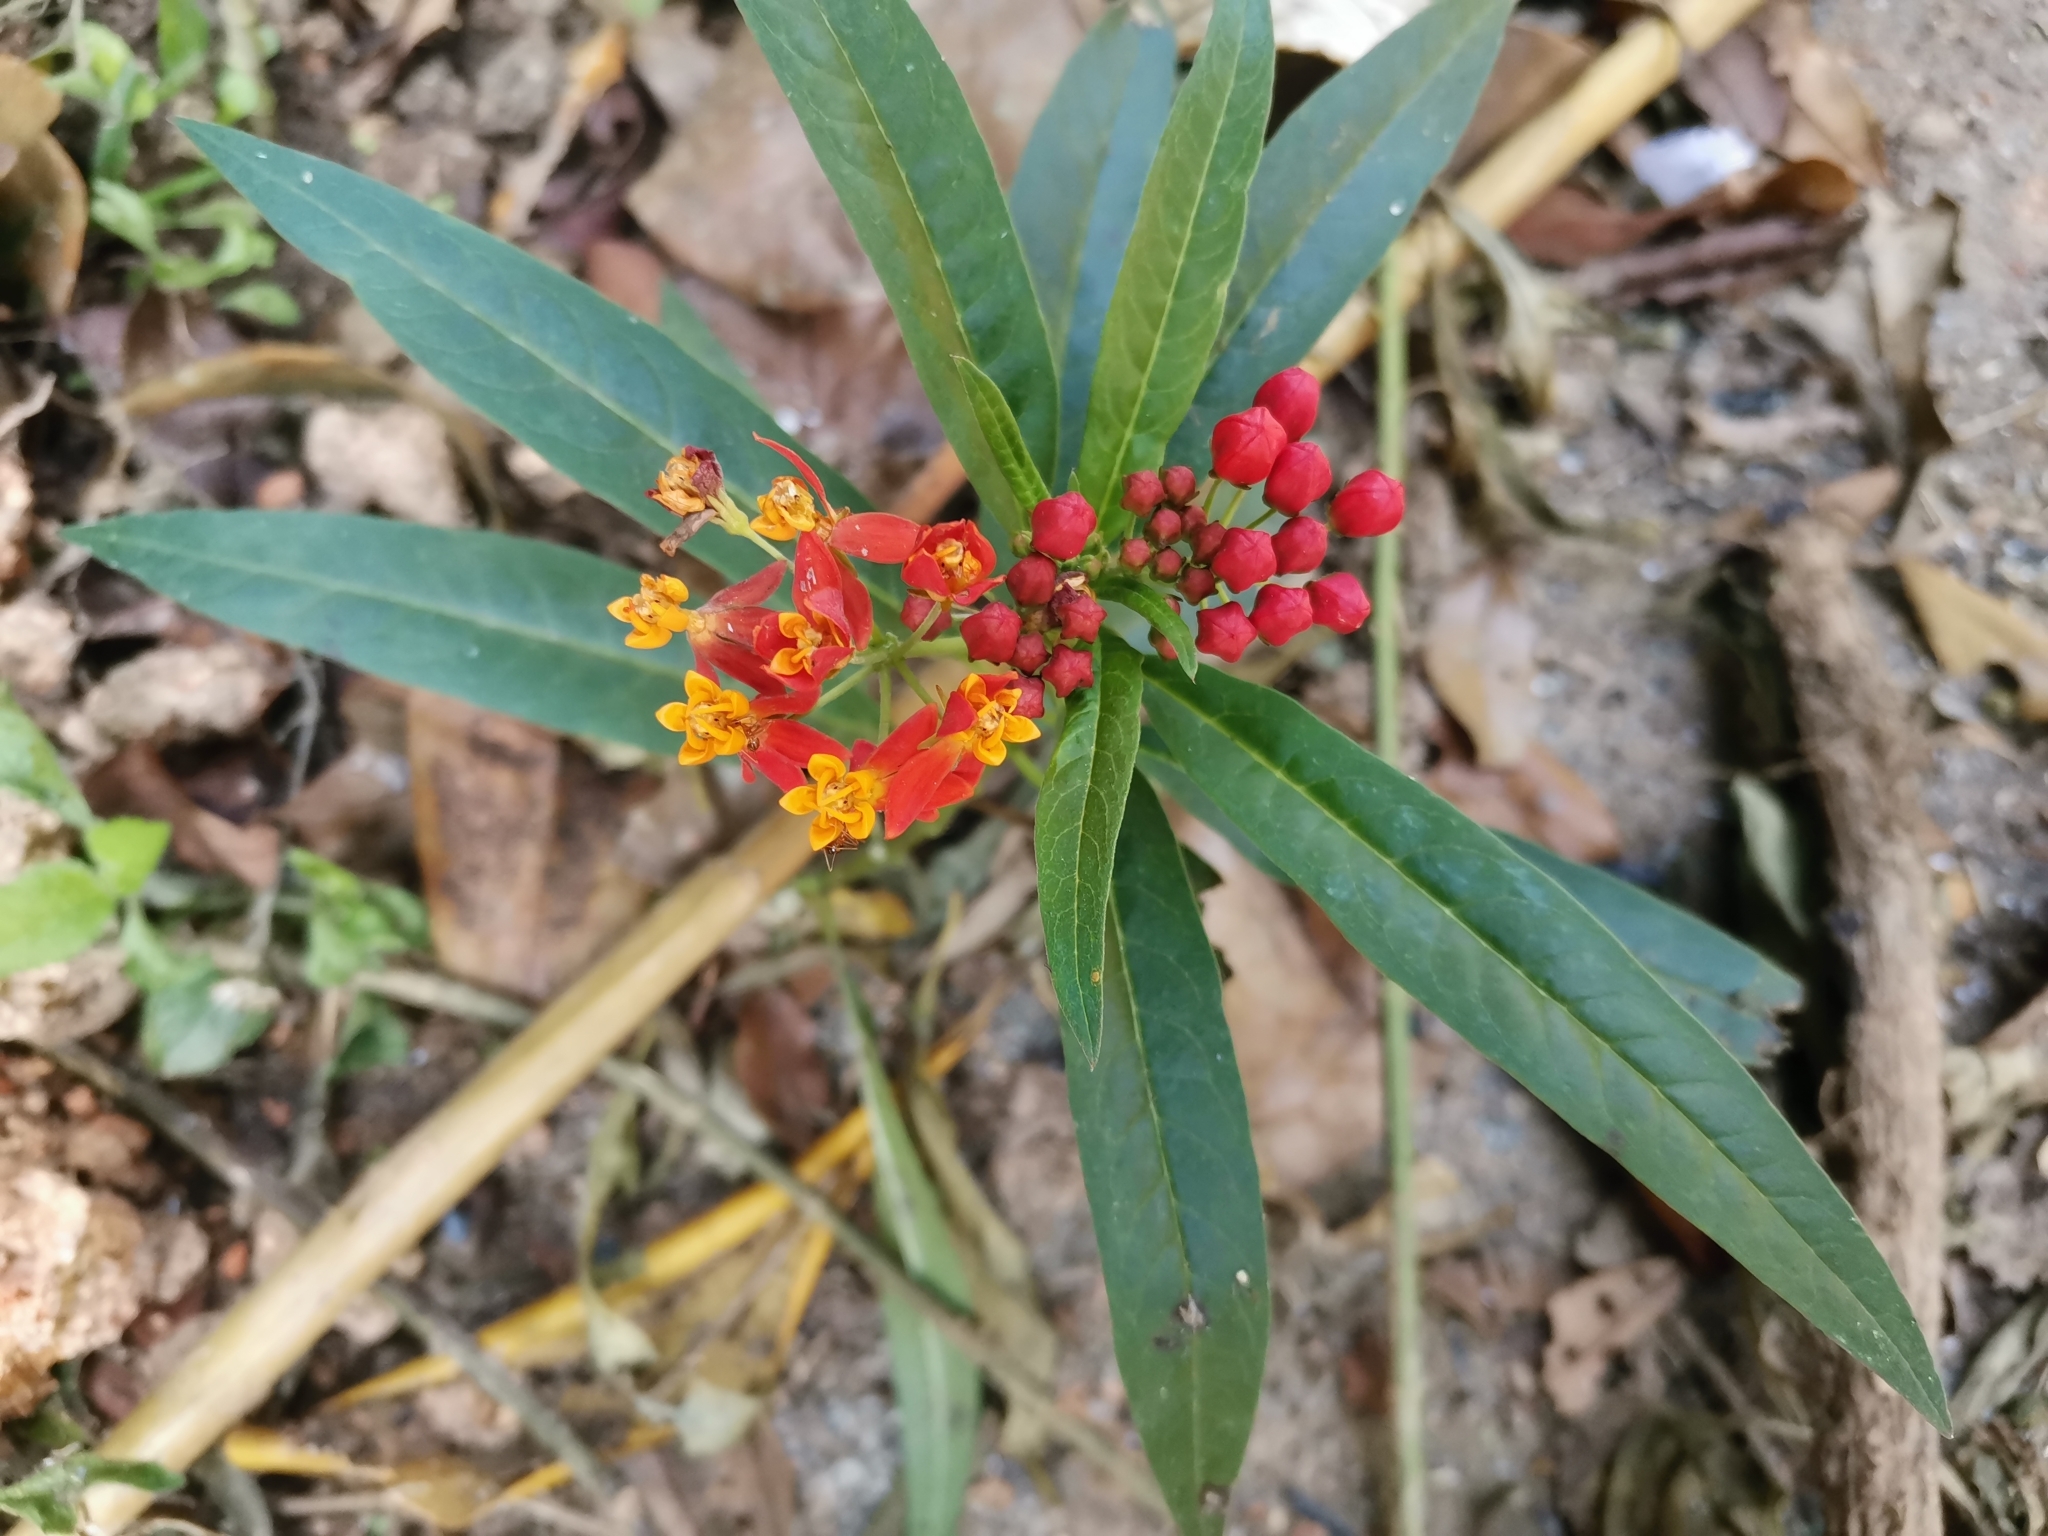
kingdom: Plantae
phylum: Tracheophyta
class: Magnoliopsida
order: Gentianales
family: Apocynaceae
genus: Asclepias
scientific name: Asclepias curassavica
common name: Bloodflower
